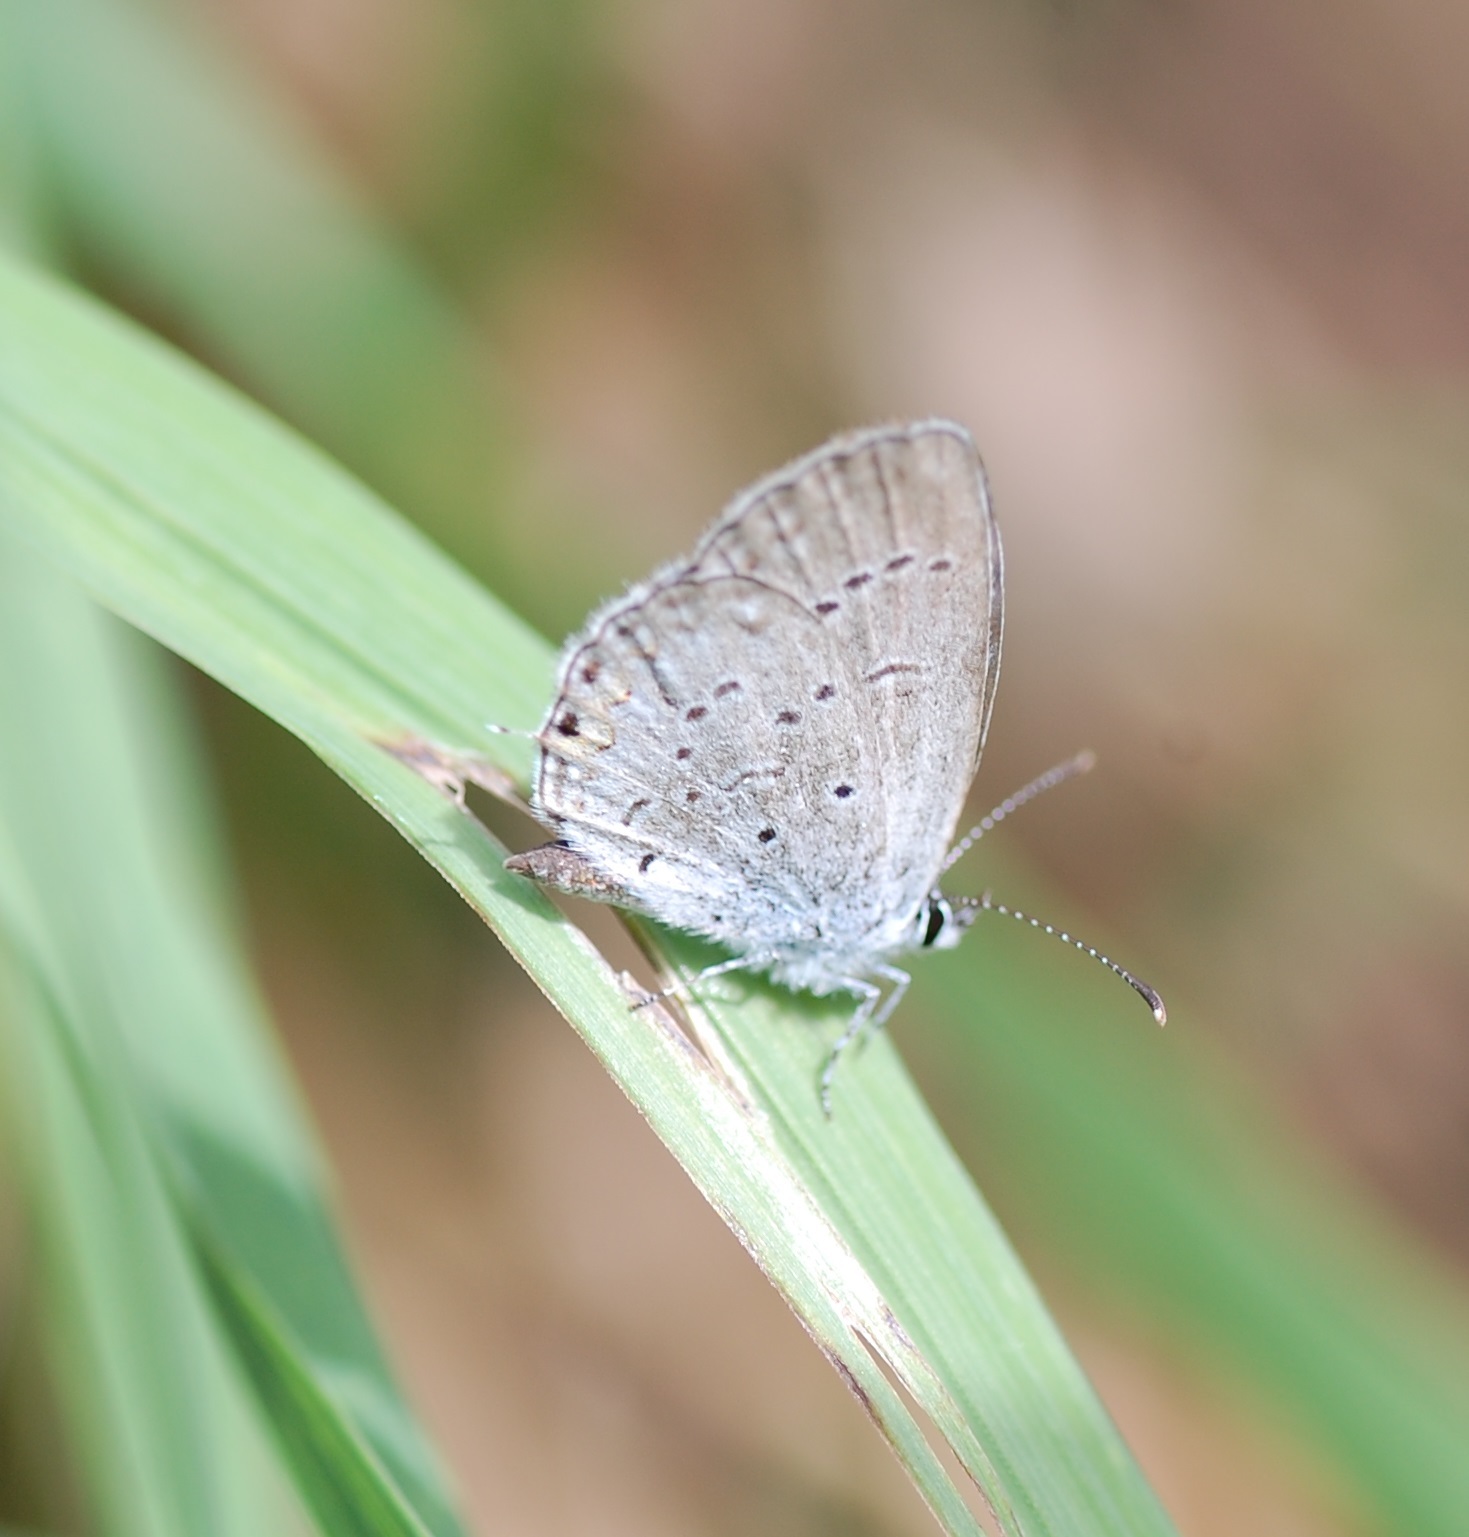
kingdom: Animalia
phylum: Arthropoda
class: Insecta
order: Lepidoptera
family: Lycaenidae
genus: Elkalyce
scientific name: Elkalyce comyntas
